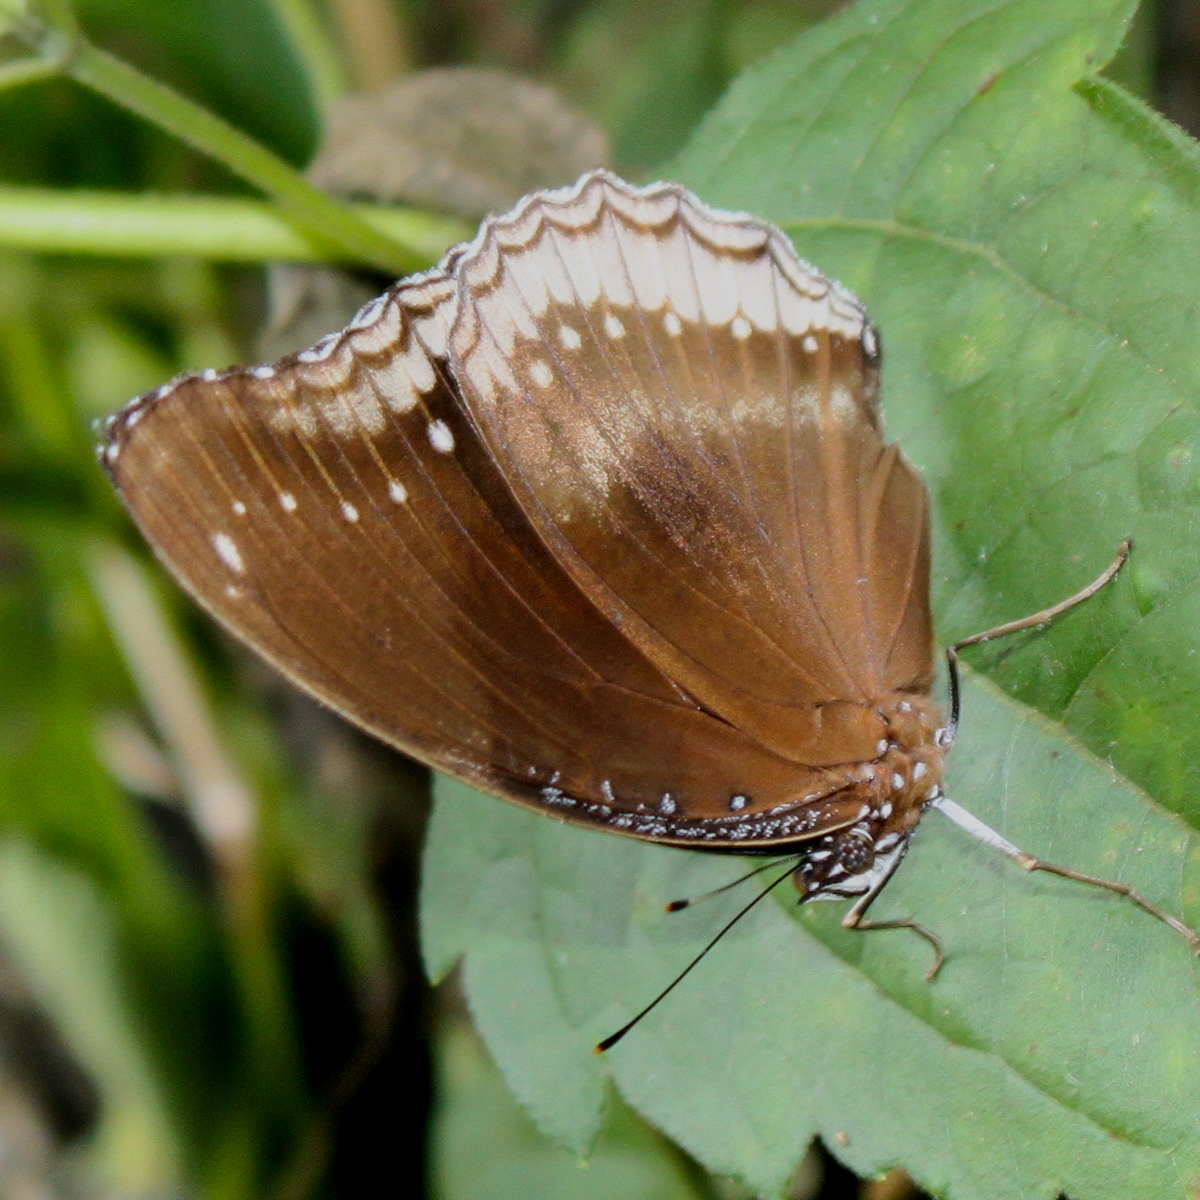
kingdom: Animalia
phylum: Arthropoda
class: Insecta
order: Lepidoptera
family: Nymphalidae
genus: Hypolimnas
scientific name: Hypolimnas bolina
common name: Great eggfly
